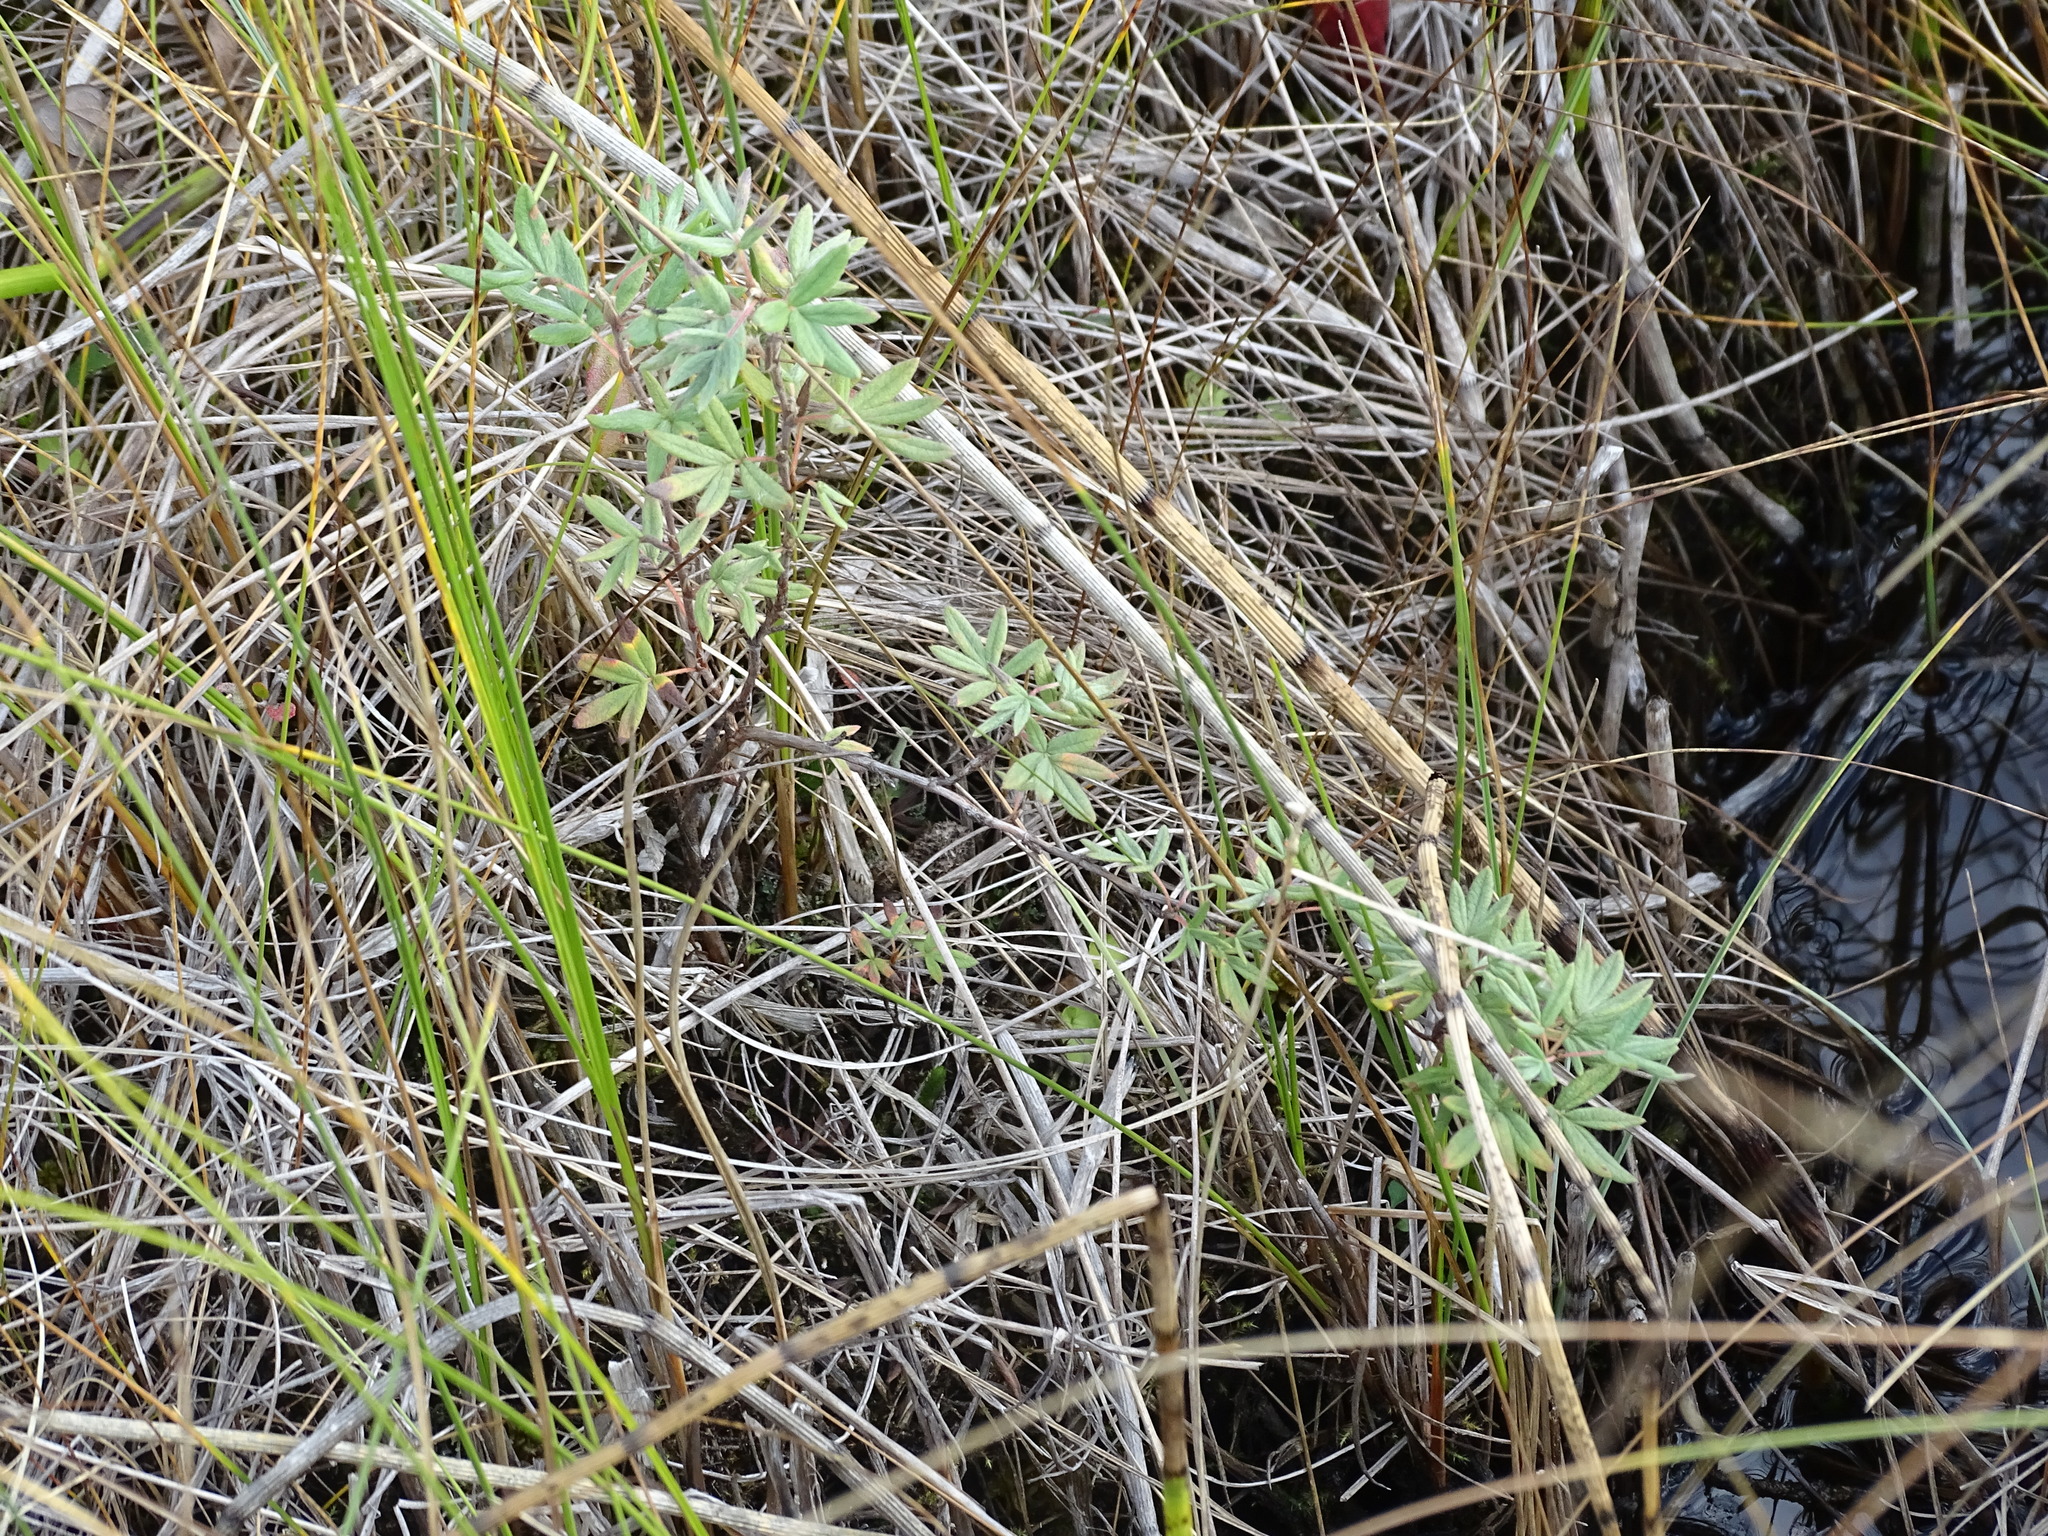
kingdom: Plantae
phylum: Tracheophyta
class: Magnoliopsida
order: Rosales
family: Rosaceae
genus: Dasiphora
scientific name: Dasiphora fruticosa
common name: Shrubby cinquefoil
